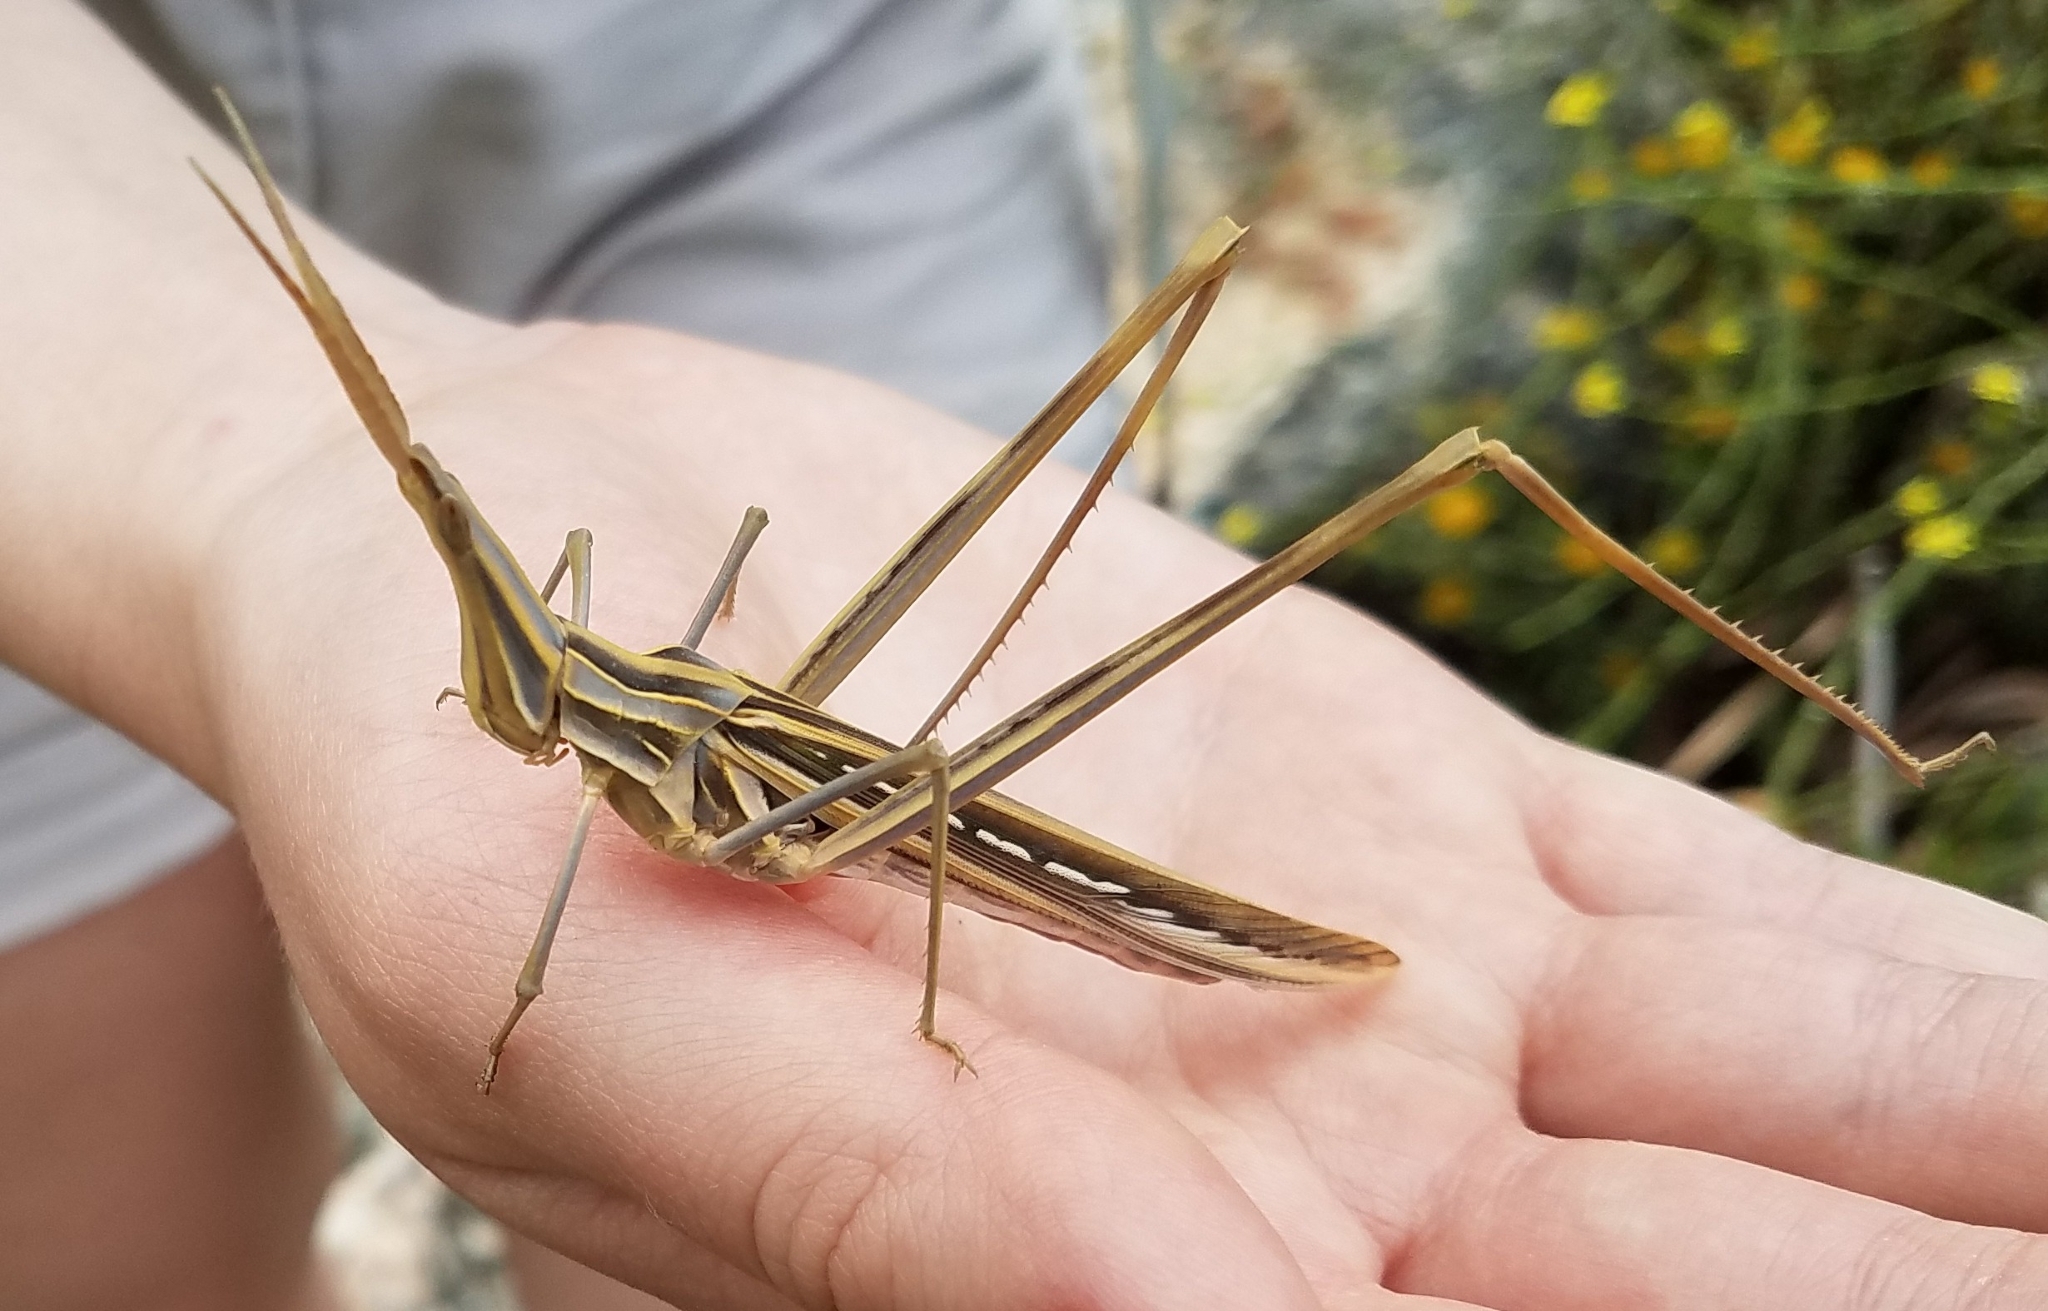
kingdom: Animalia
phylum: Arthropoda
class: Insecta
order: Orthoptera
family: Acrididae
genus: Truxalis
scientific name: Truxalis nasuta
